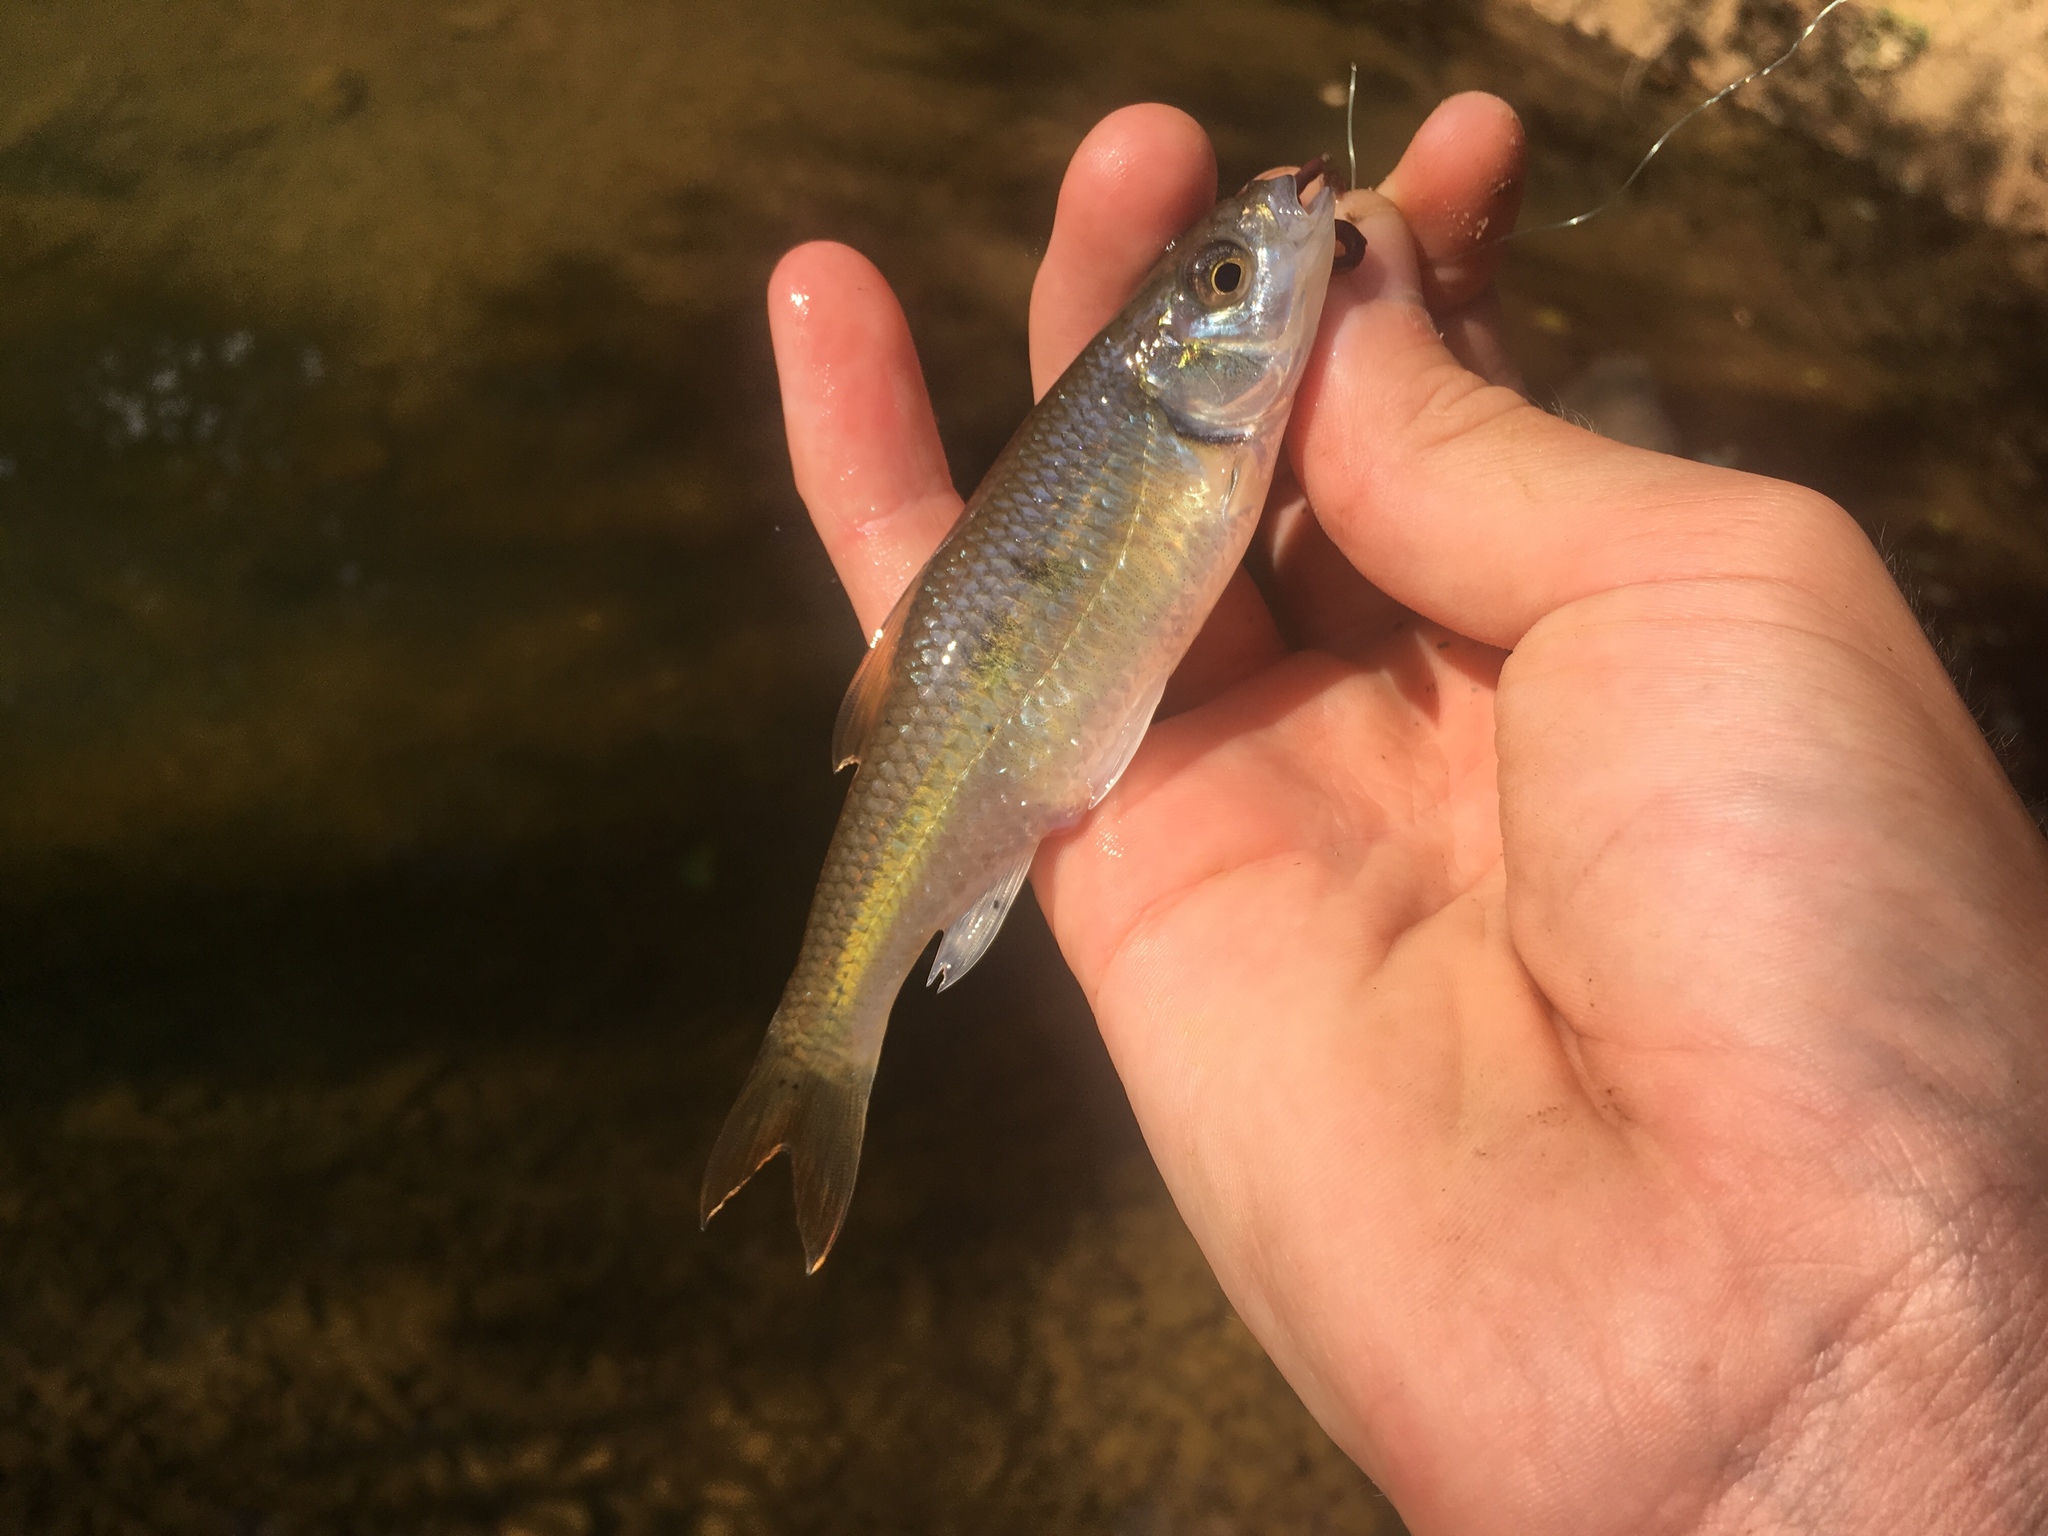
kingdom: Animalia
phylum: Chordata
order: Cypriniformes
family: Cyprinidae
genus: Luxilus
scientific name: Luxilus albeolus
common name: White shiner
